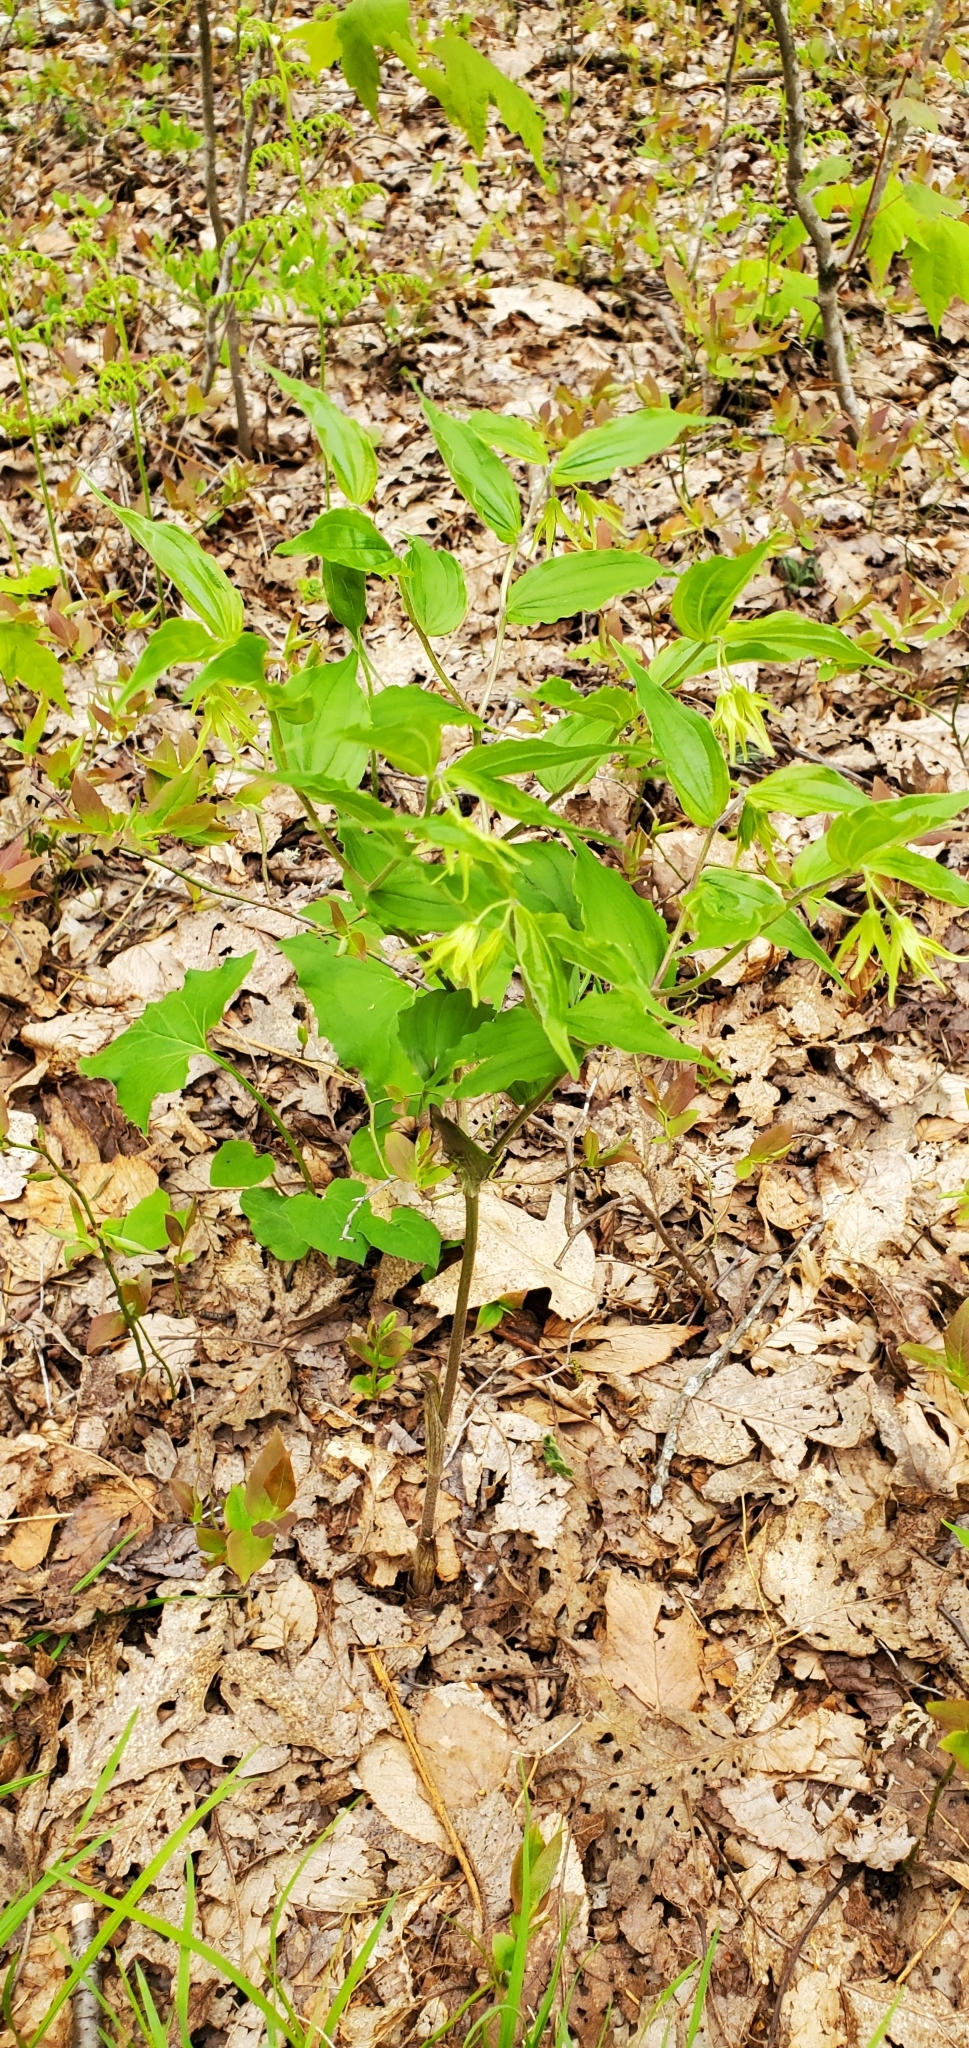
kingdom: Plantae
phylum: Tracheophyta
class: Liliopsida
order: Liliales
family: Liliaceae
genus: Prosartes
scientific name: Prosartes lanuginosa
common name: Hairy mandarin
